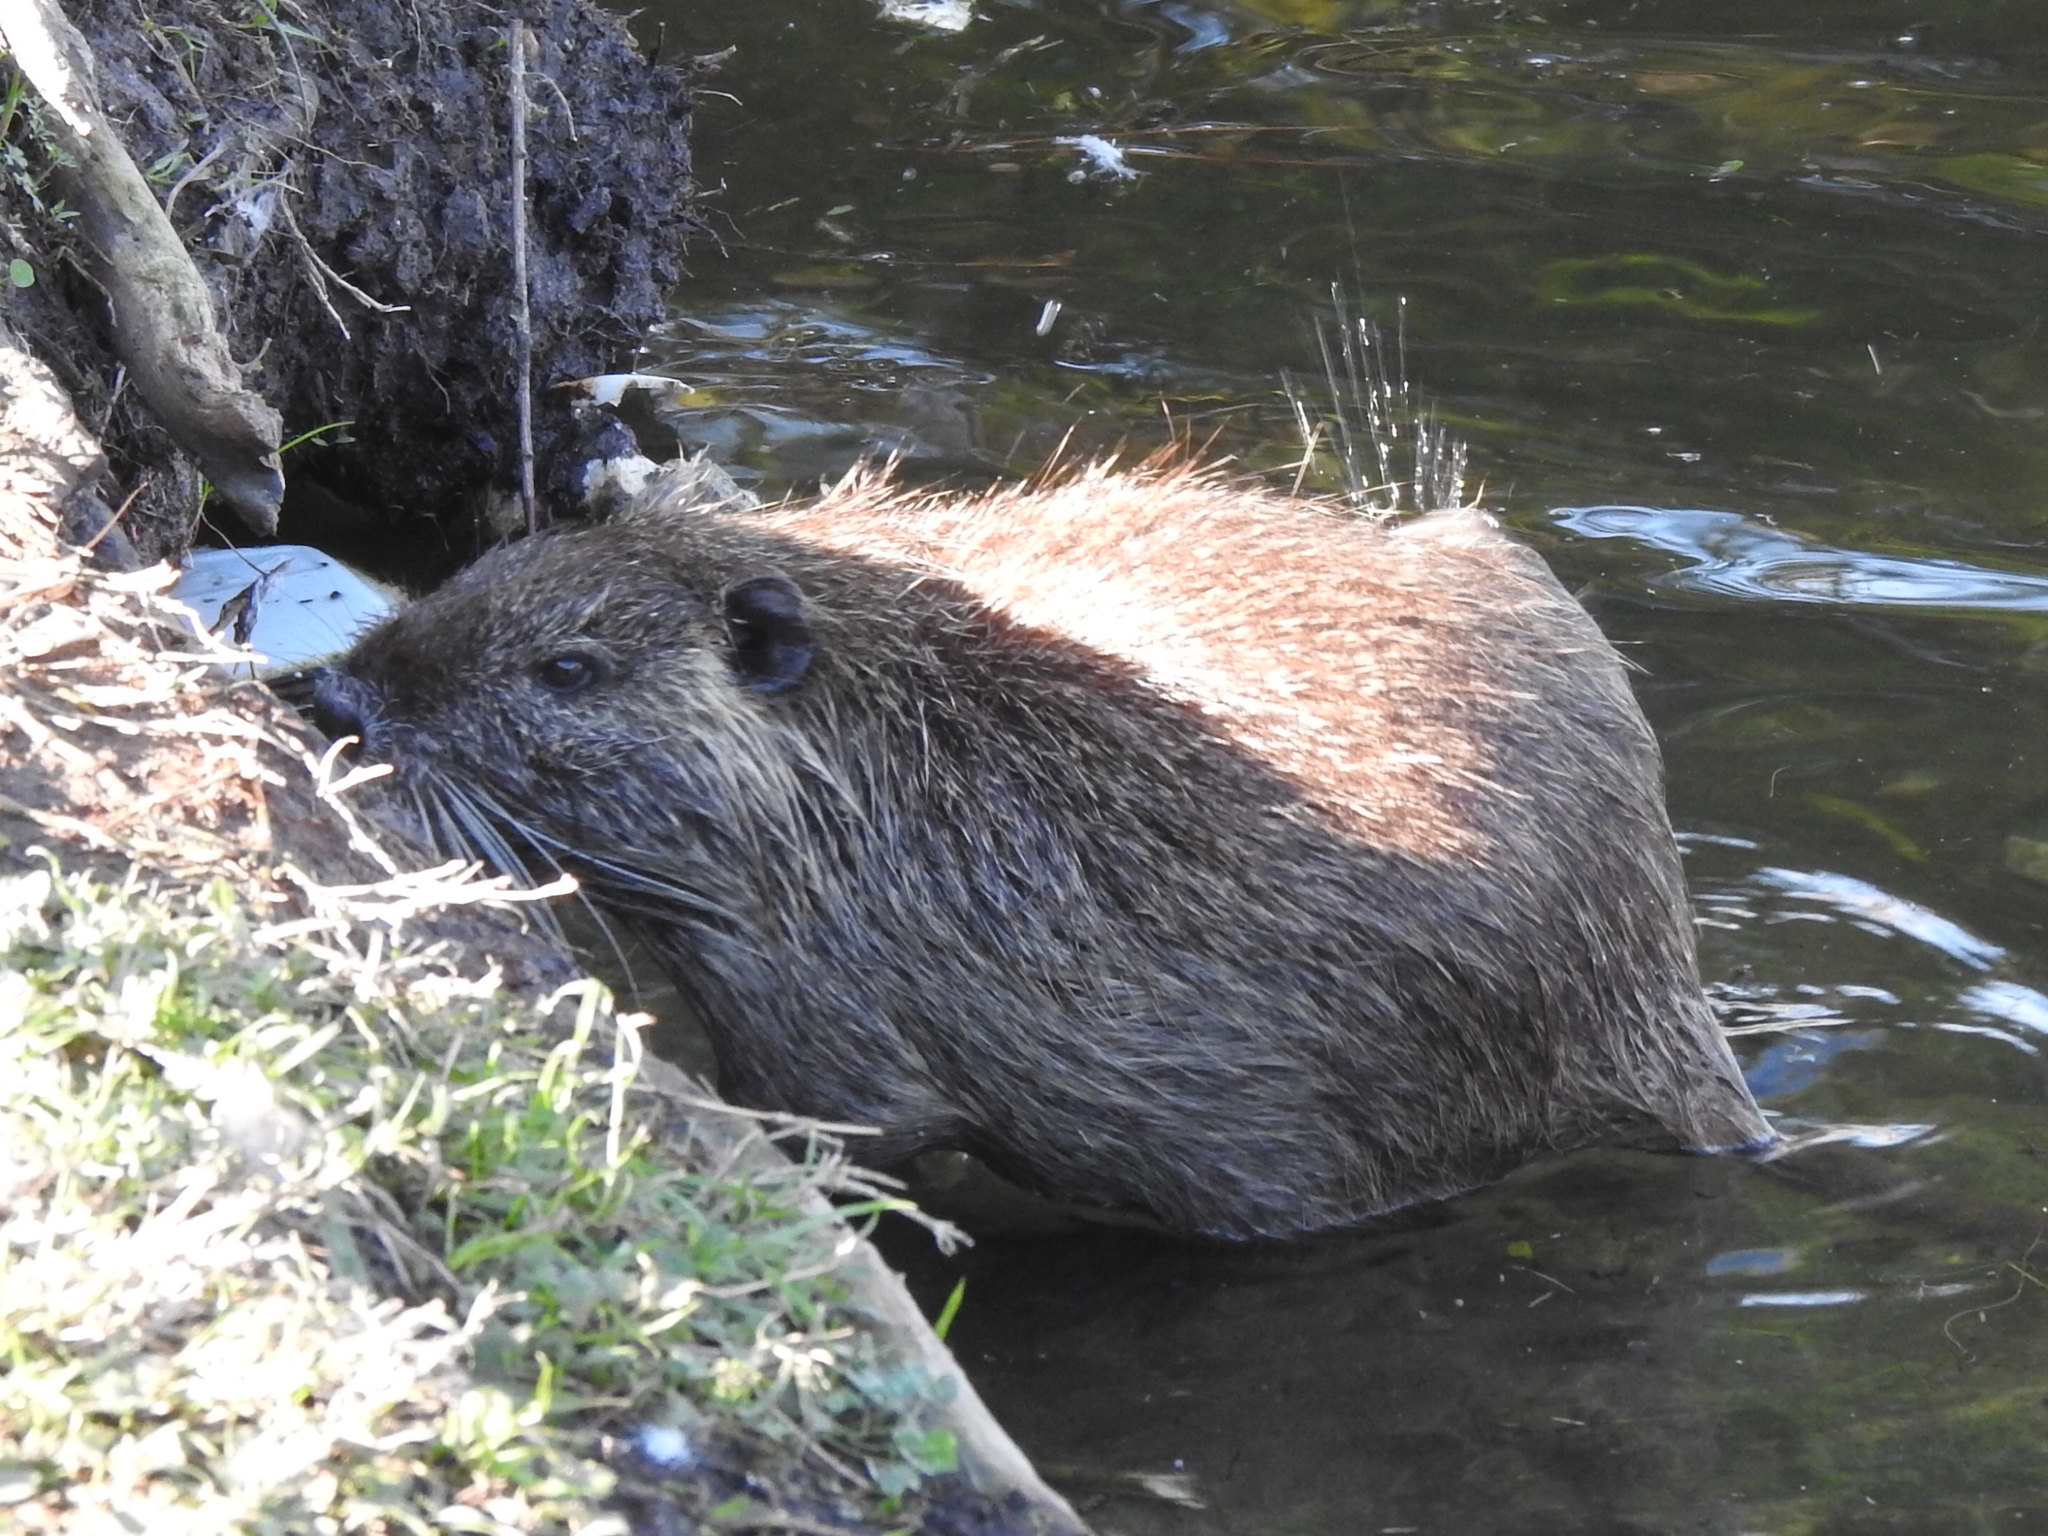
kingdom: Animalia
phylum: Chordata
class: Mammalia
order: Rodentia
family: Myocastoridae
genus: Myocastor
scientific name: Myocastor coypus
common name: Coypu
